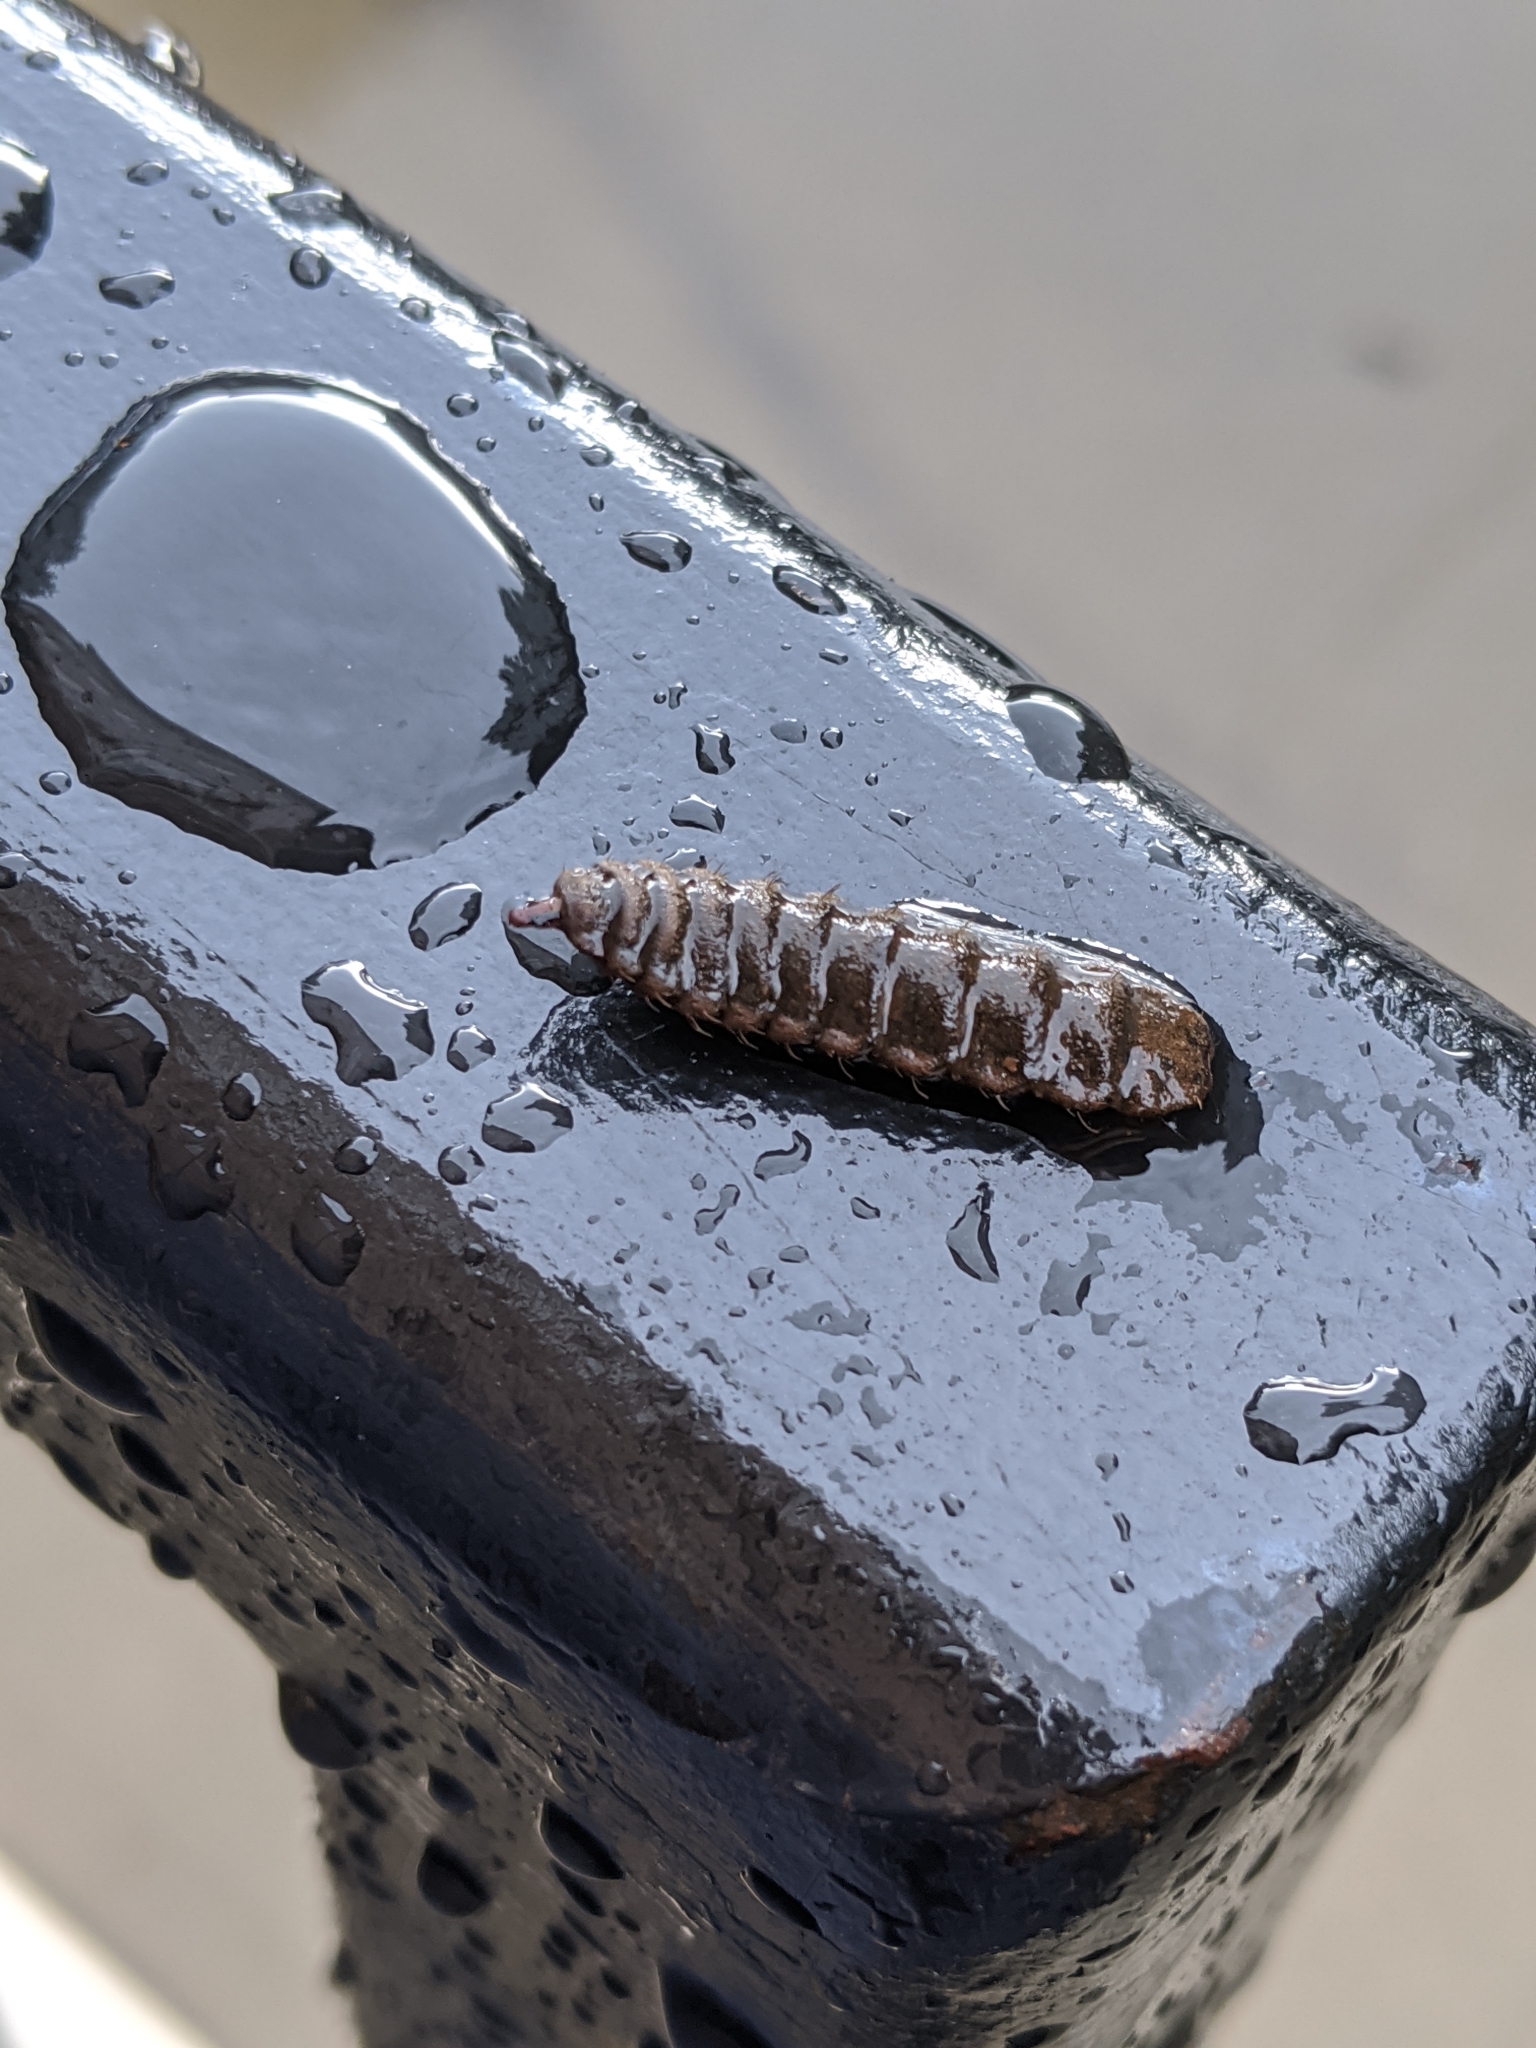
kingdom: Animalia
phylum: Arthropoda
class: Insecta
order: Diptera
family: Stratiomyidae
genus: Hermetia
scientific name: Hermetia illucens
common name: Black soldier fly
